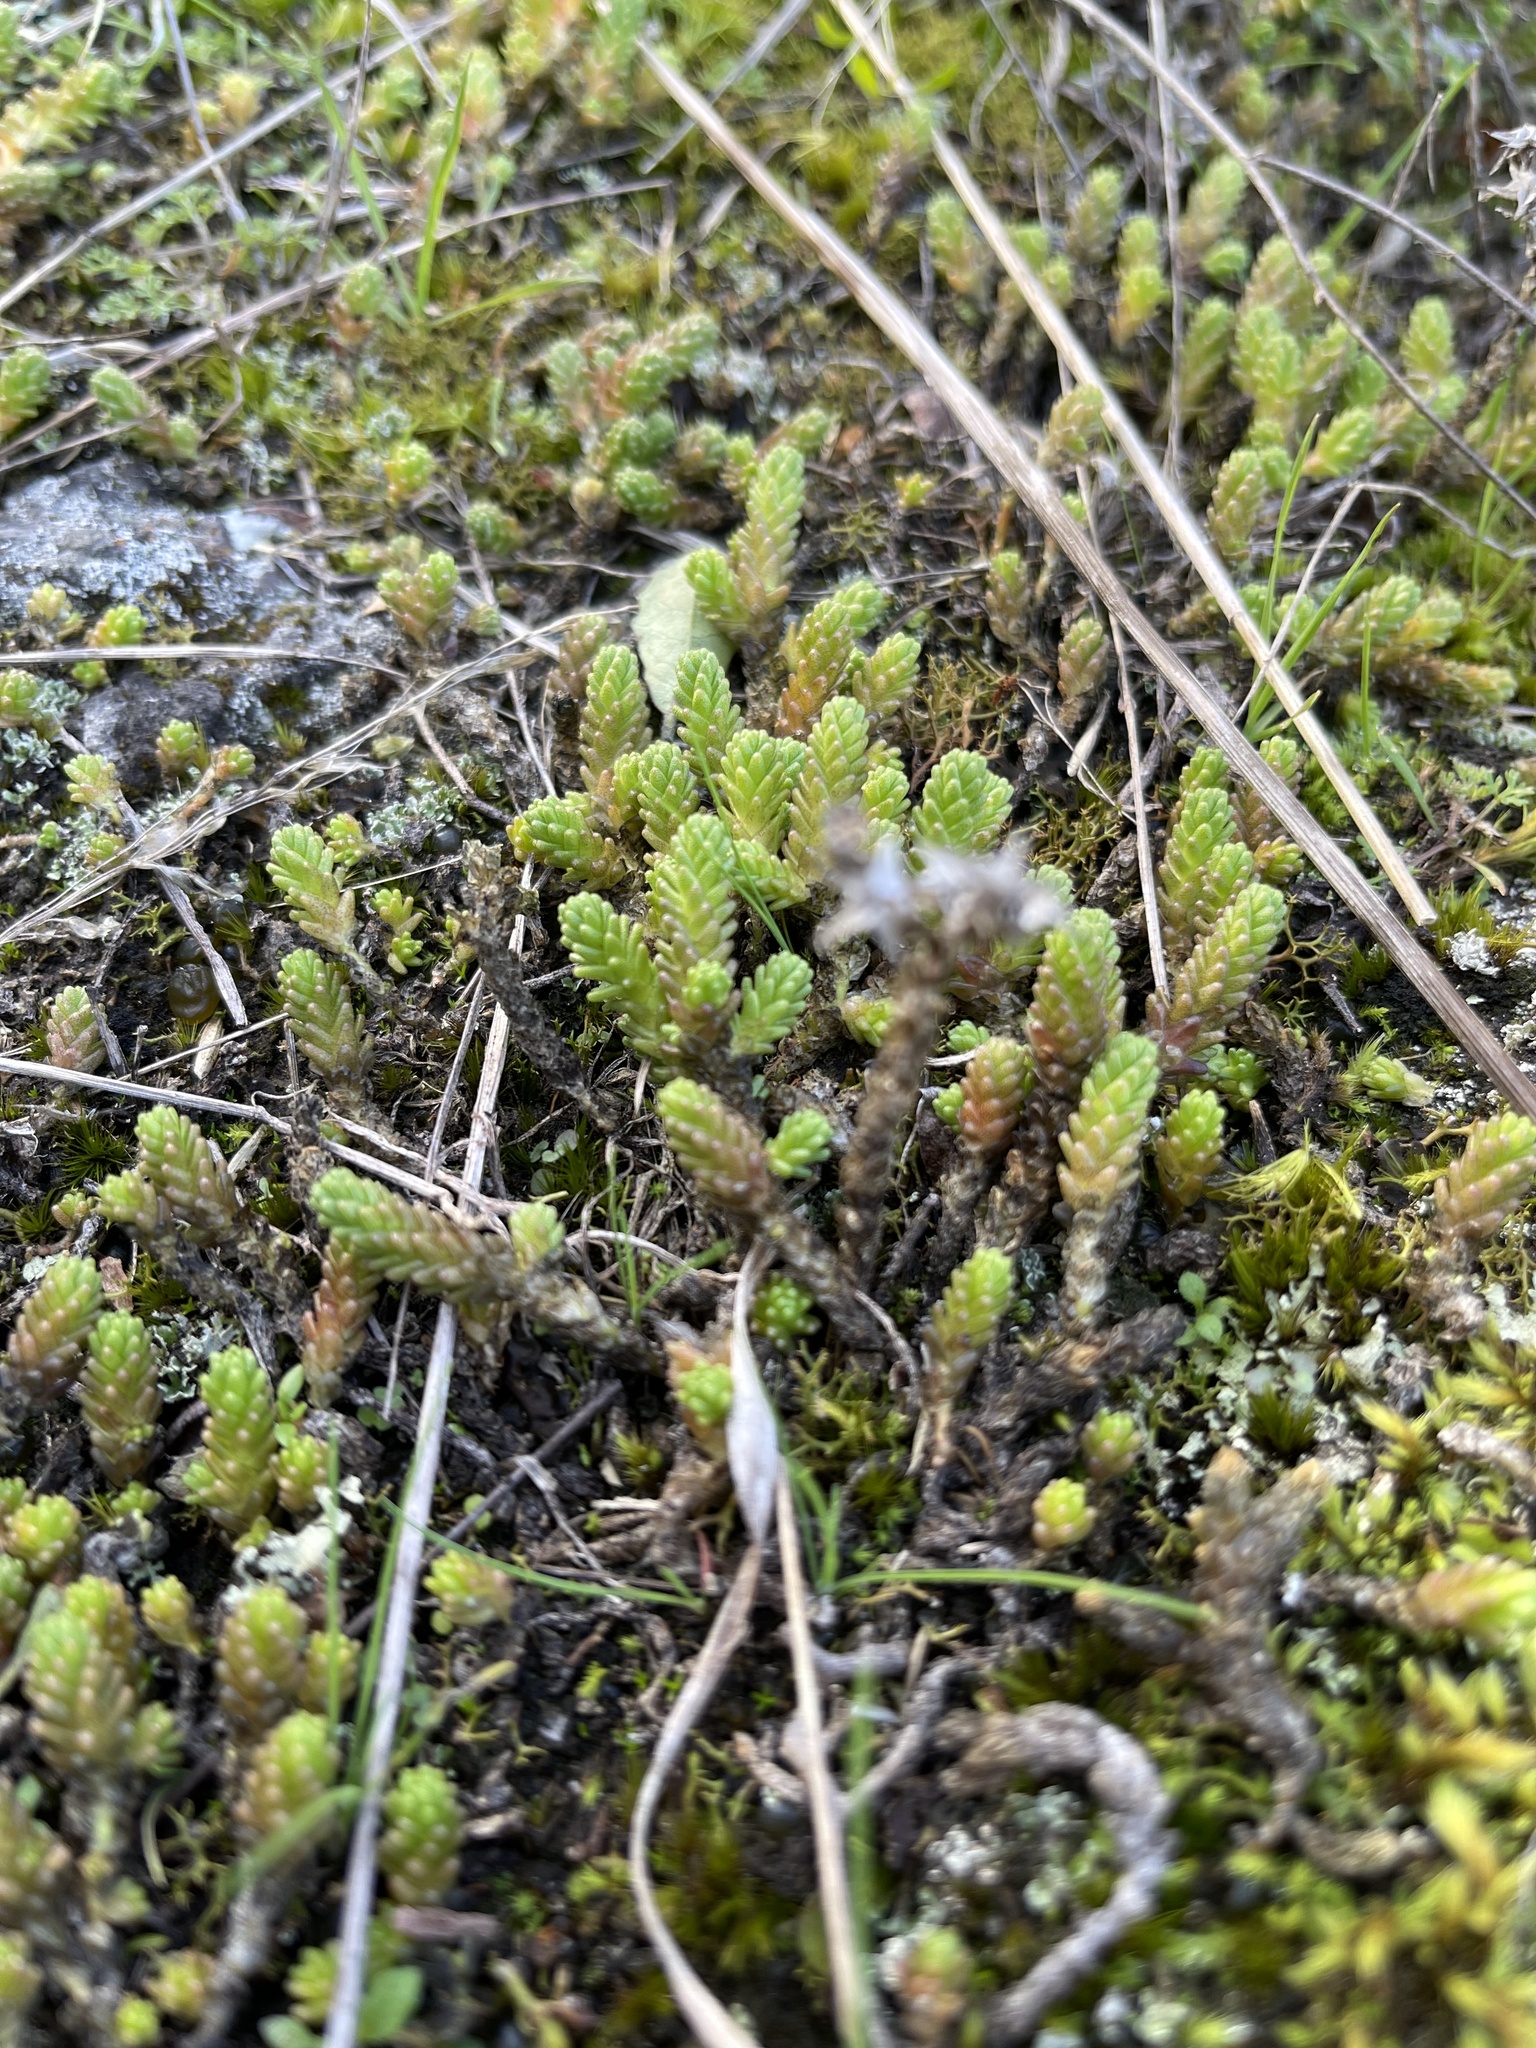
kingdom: Plantae
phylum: Tracheophyta
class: Magnoliopsida
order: Saxifragales
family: Crassulaceae
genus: Sedum
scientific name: Sedum acre
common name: Biting stonecrop
